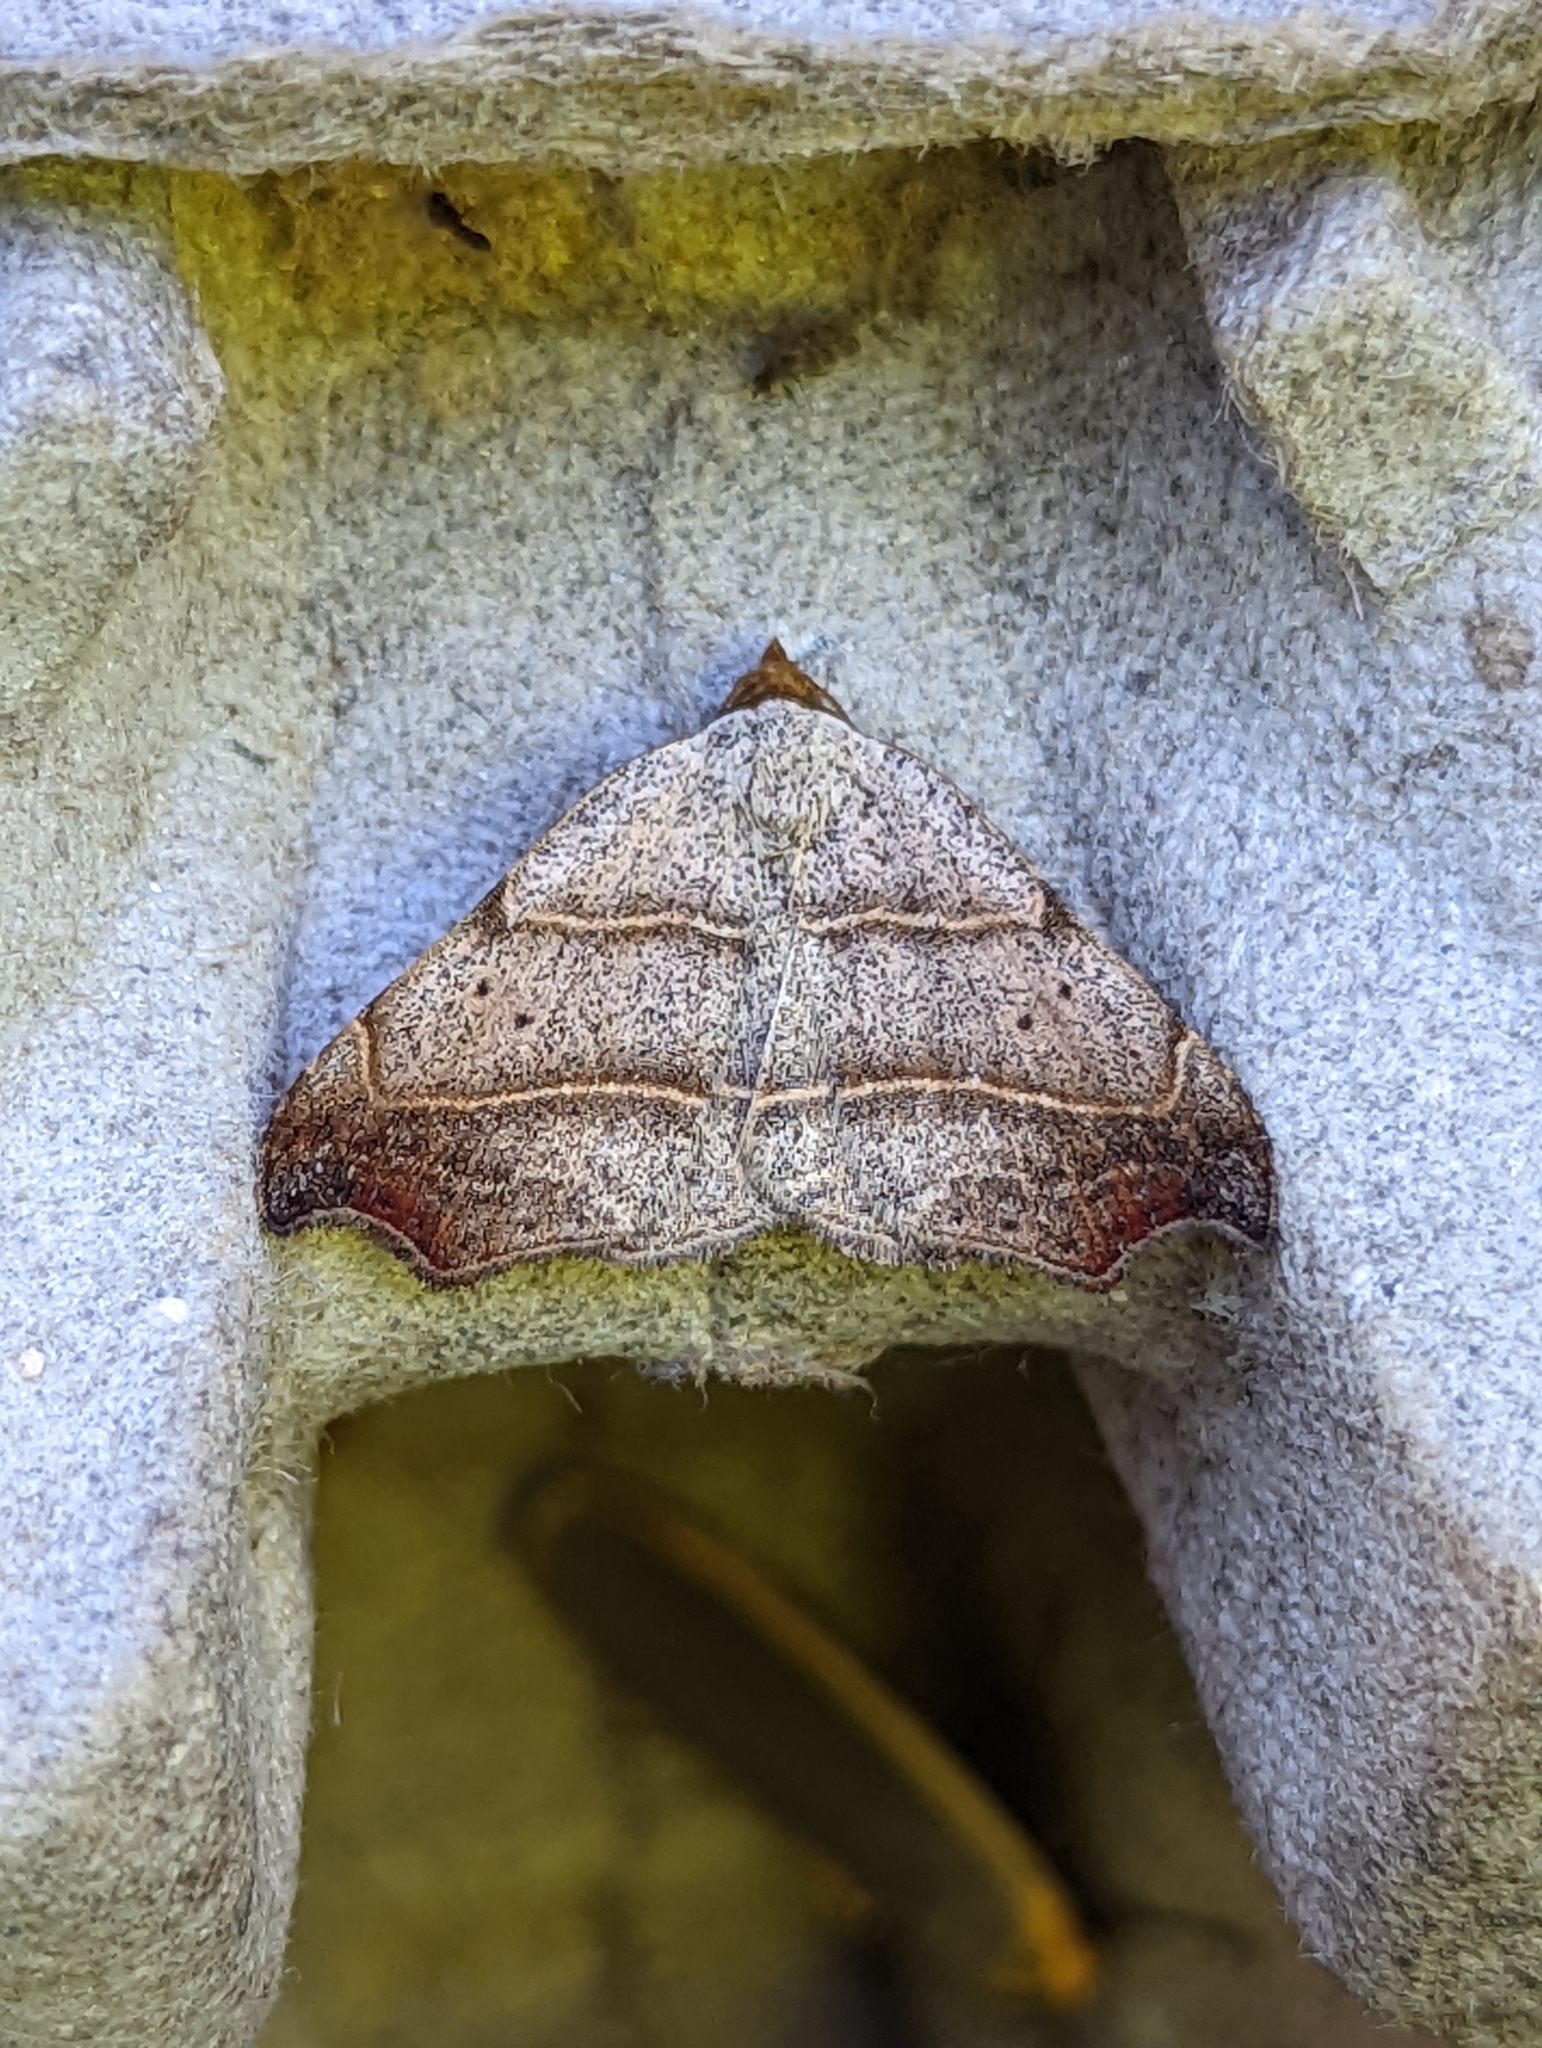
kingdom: Animalia
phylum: Arthropoda
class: Insecta
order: Lepidoptera
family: Erebidae
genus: Laspeyria
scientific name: Laspeyria flexula
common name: Beautiful hook-tip
